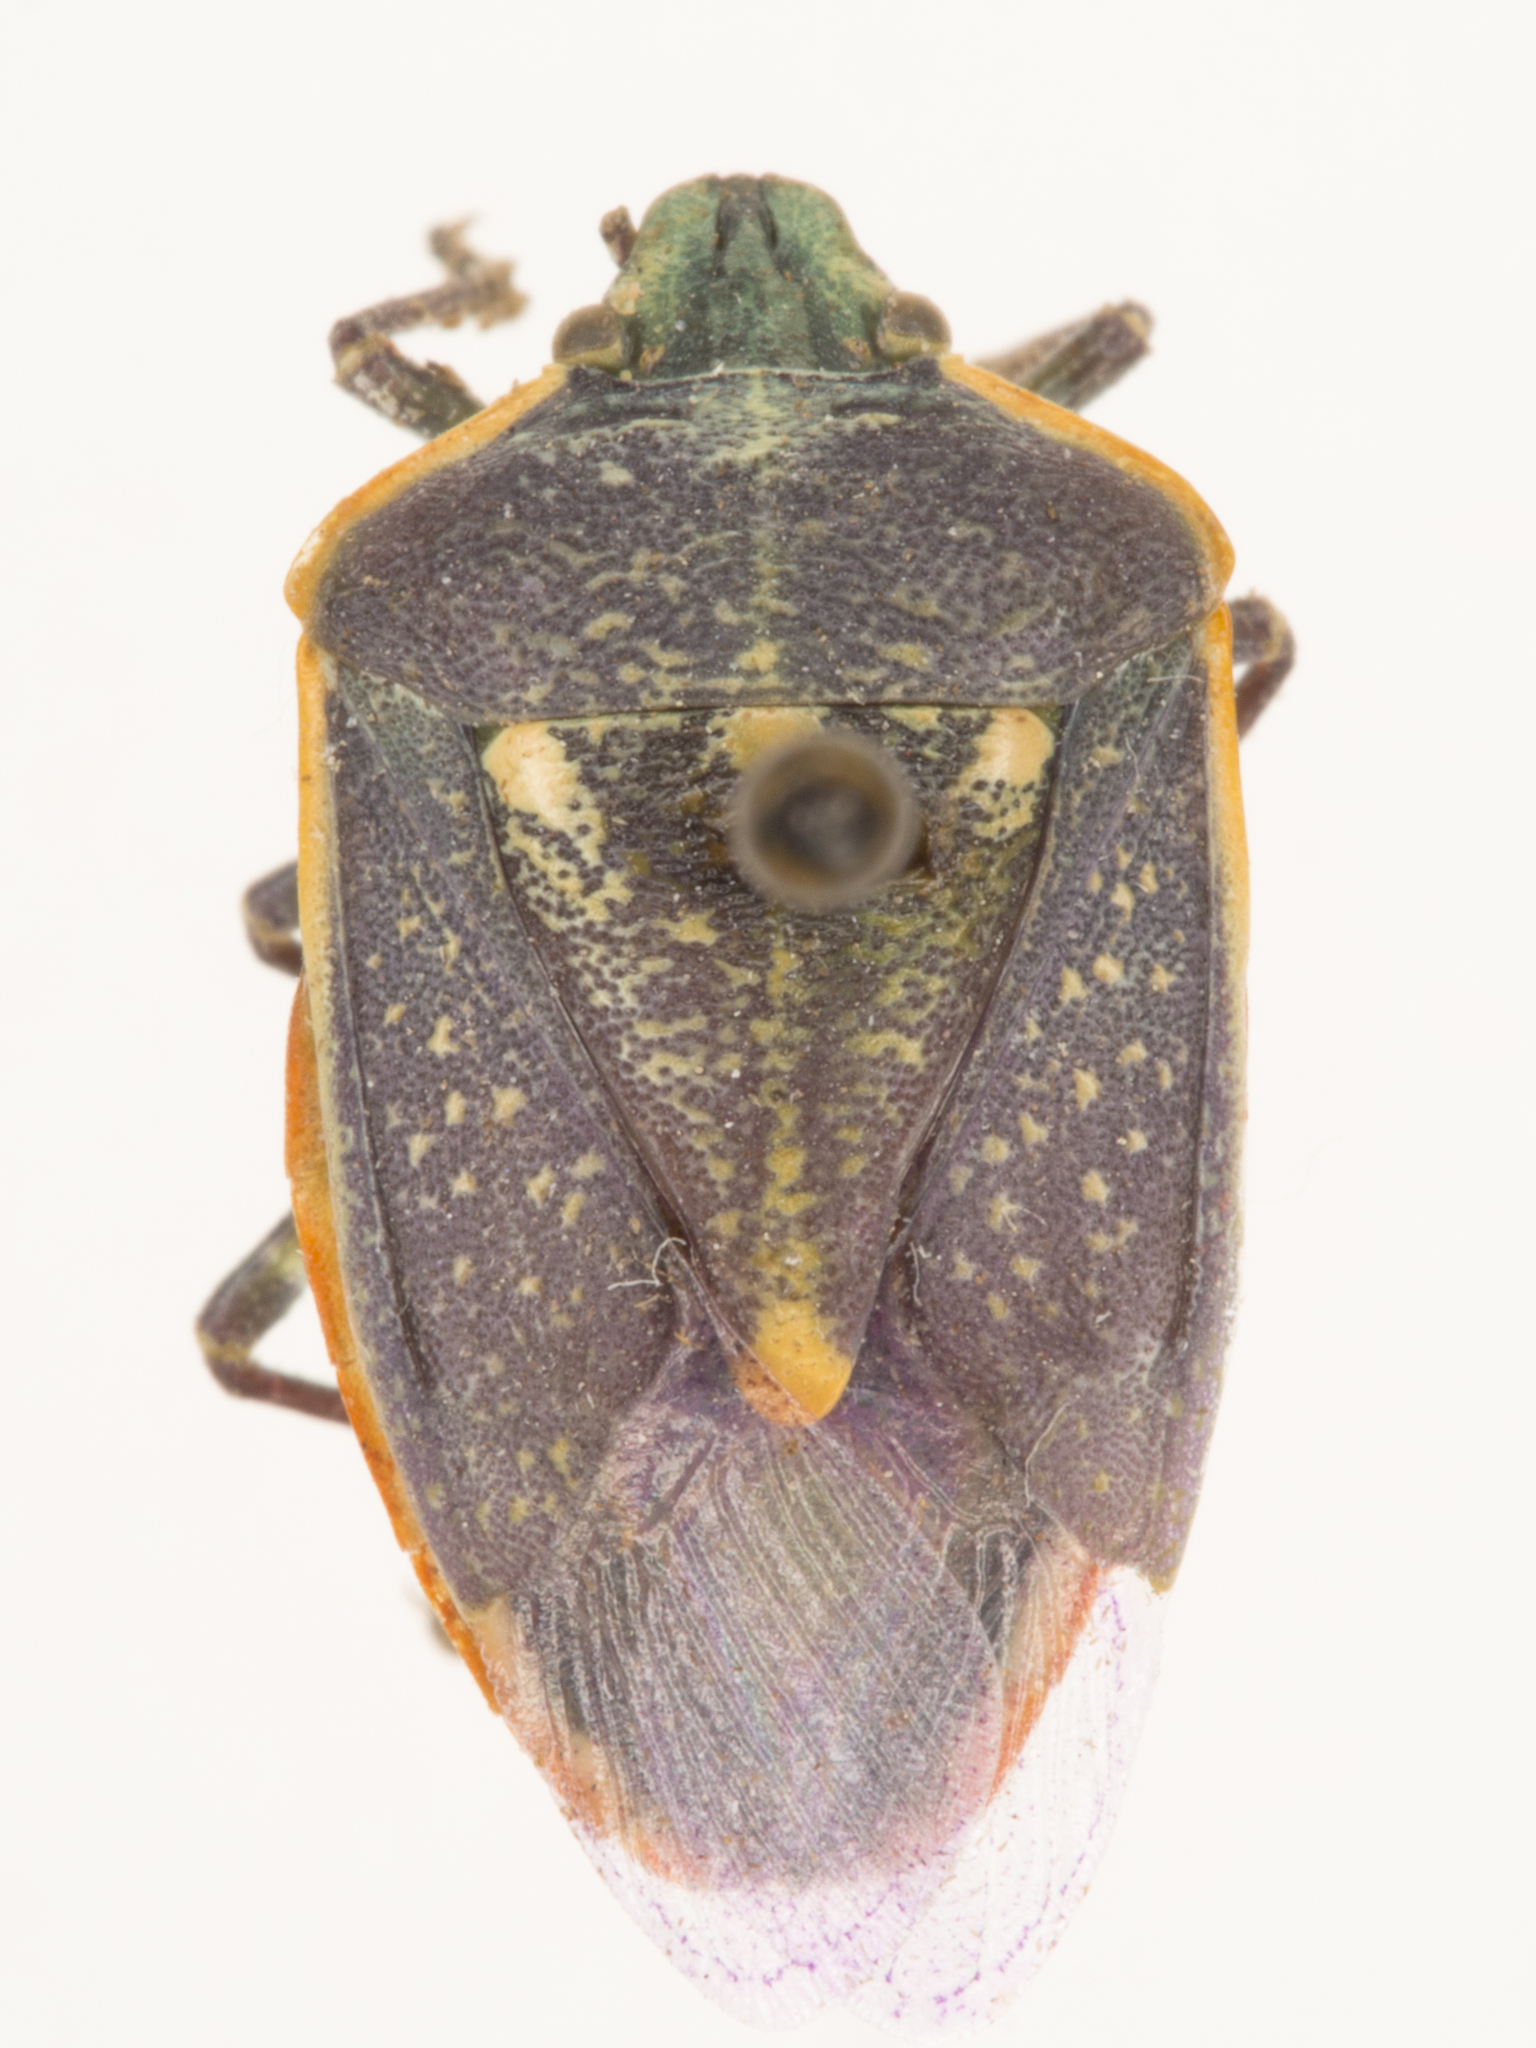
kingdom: Animalia
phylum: Arthropoda
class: Insecta
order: Hemiptera
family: Pentatomidae
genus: Chlorochroa
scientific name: Chlorochroa sayi
